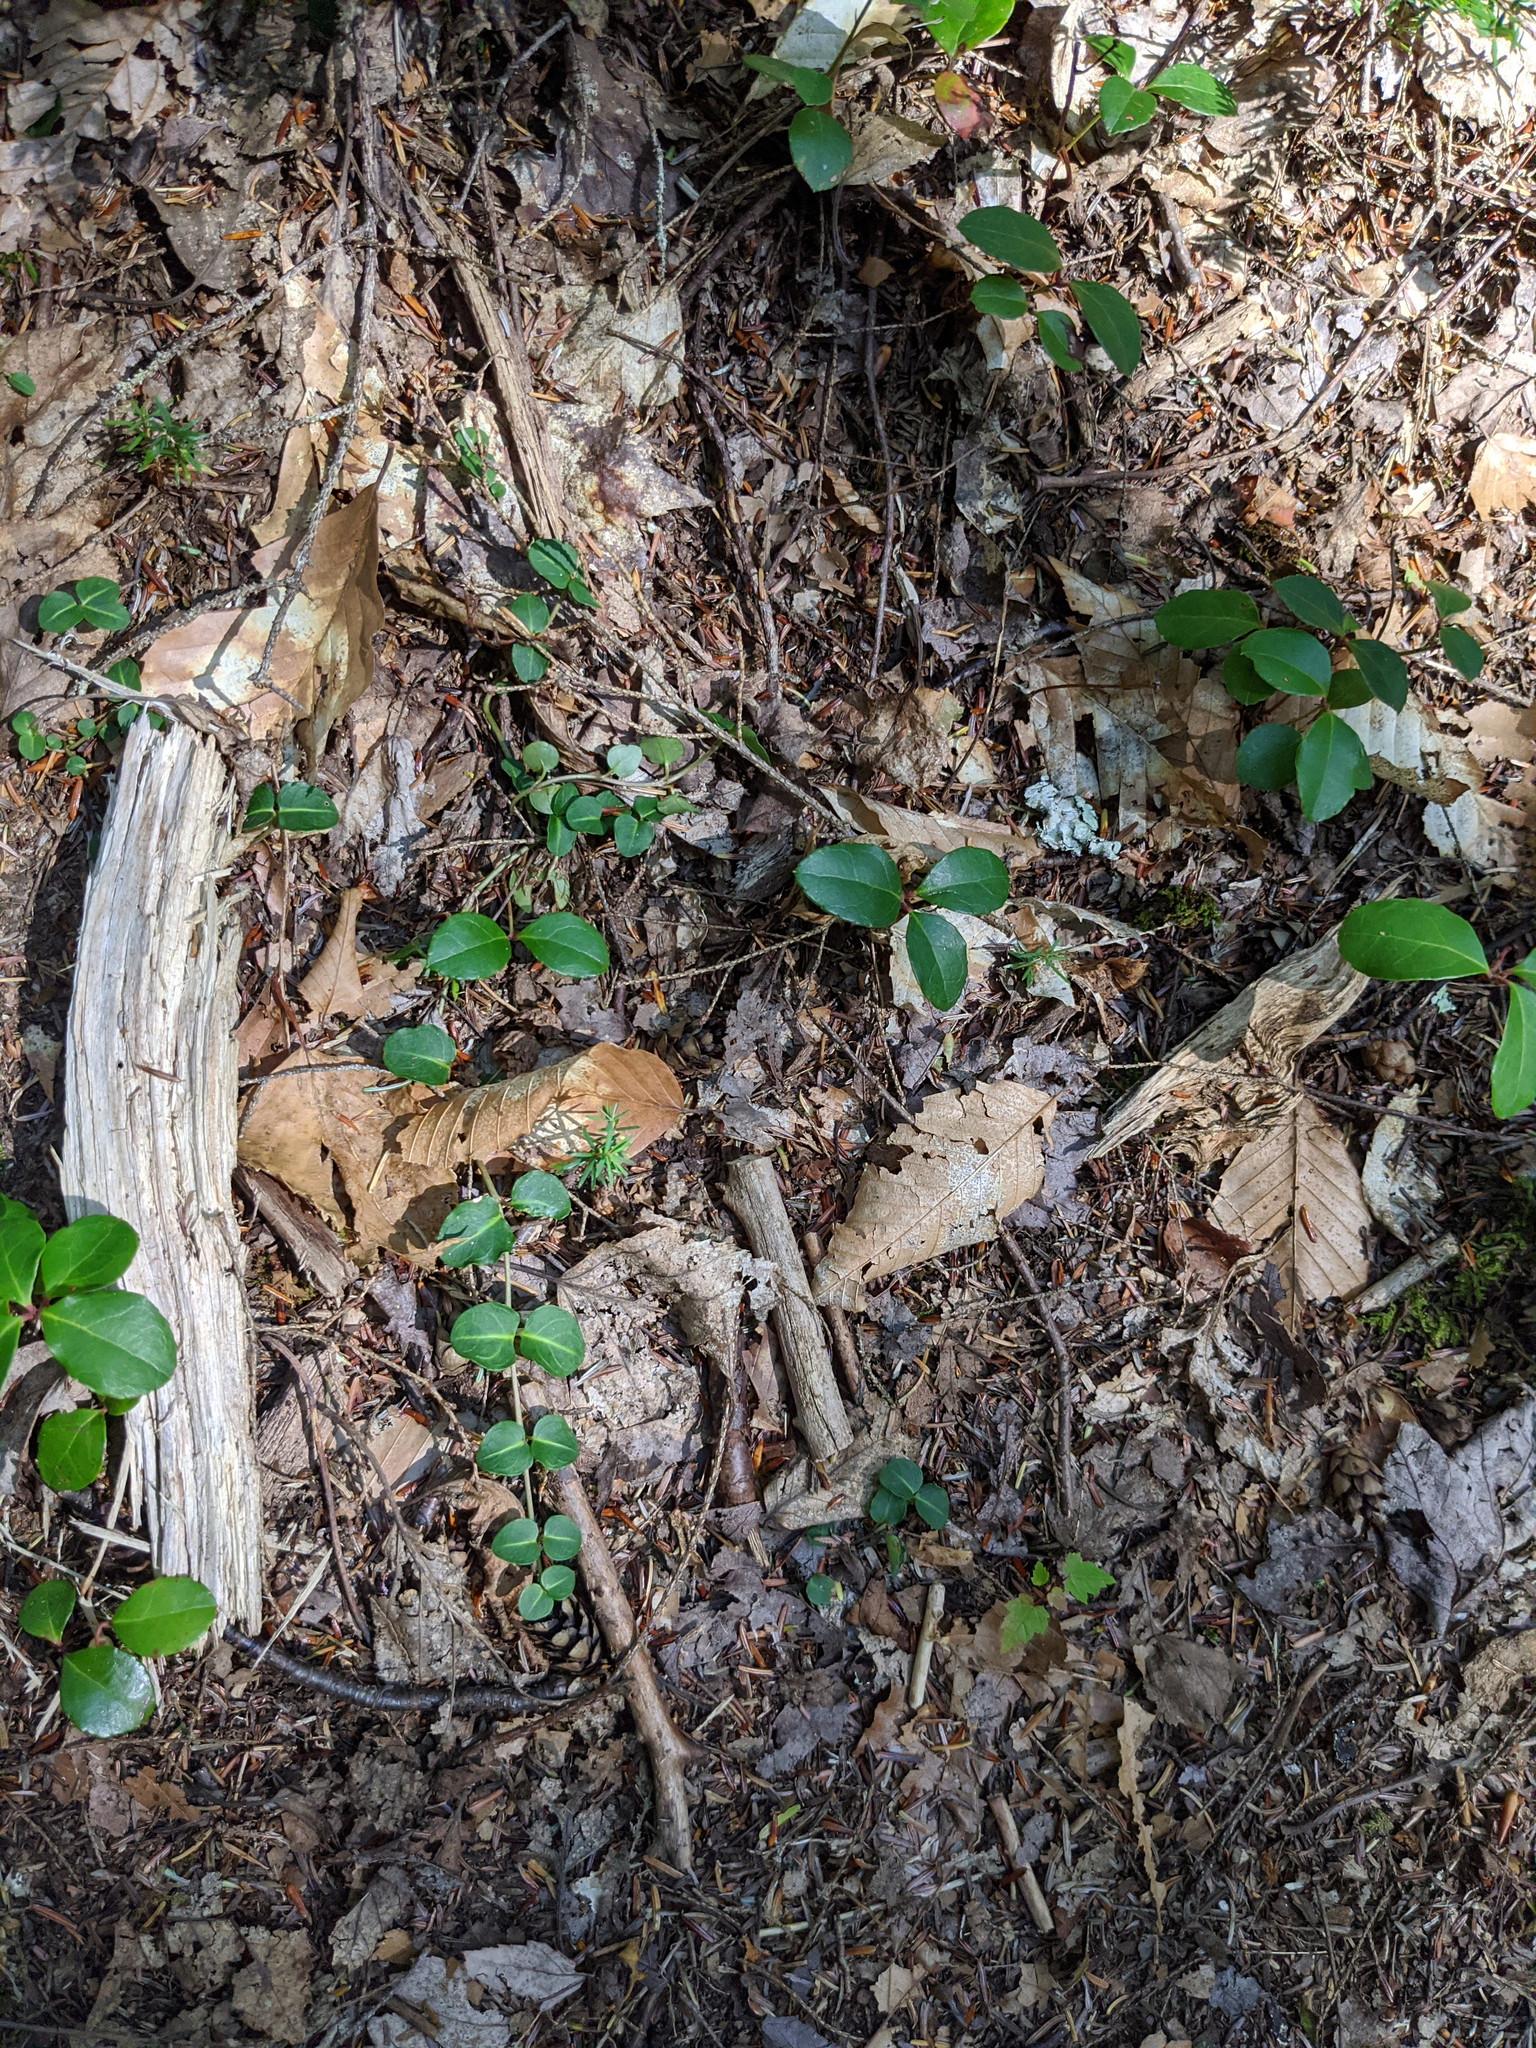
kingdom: Plantae
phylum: Tracheophyta
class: Magnoliopsida
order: Gentianales
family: Rubiaceae
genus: Mitchella
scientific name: Mitchella repens
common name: Partridge-berry
